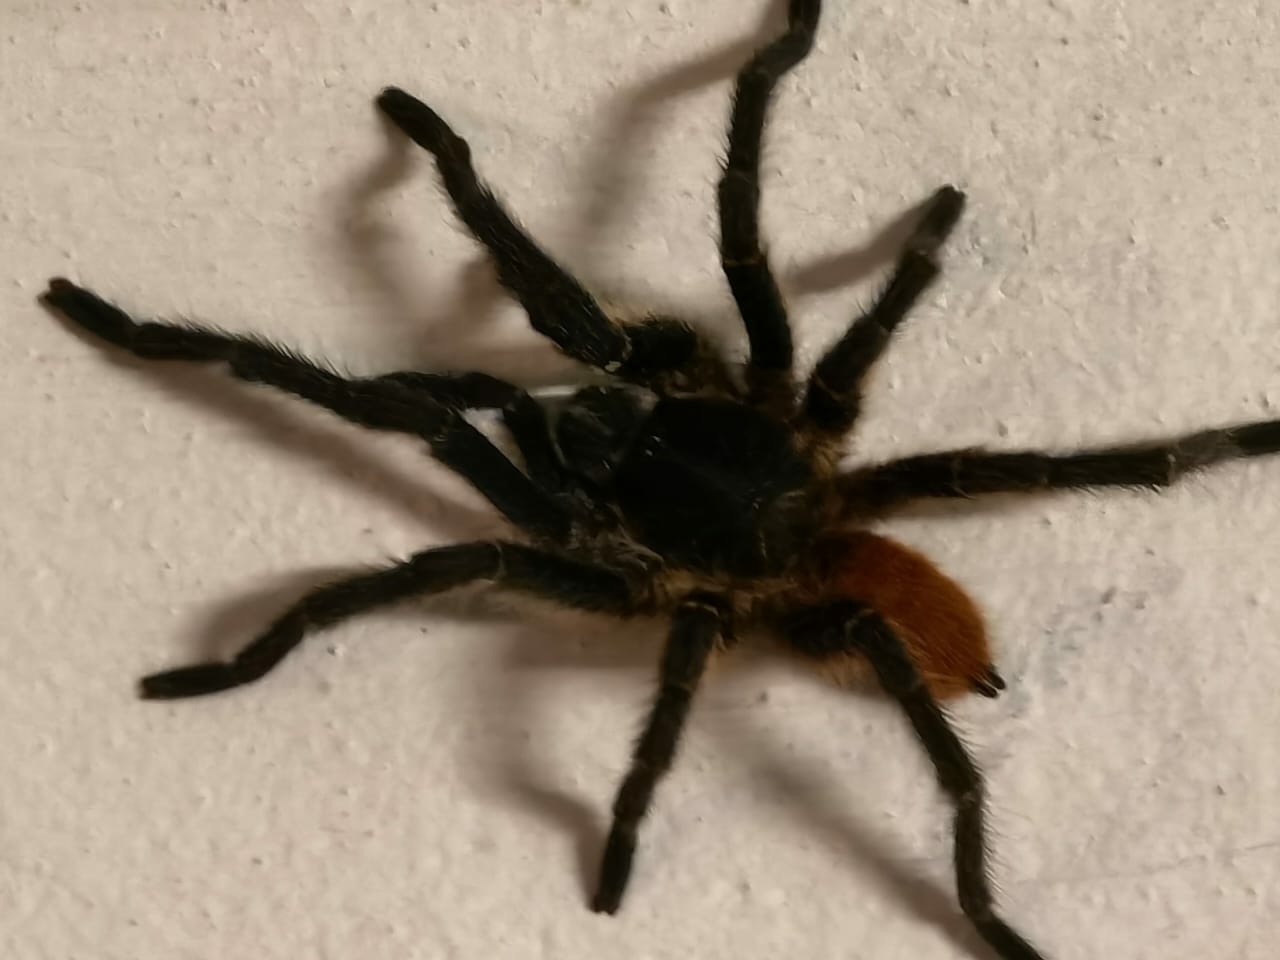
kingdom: Animalia
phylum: Arthropoda
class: Arachnida
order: Araneae
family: Theraphosidae
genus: Harpactira
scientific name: Harpactira chrysogaster
